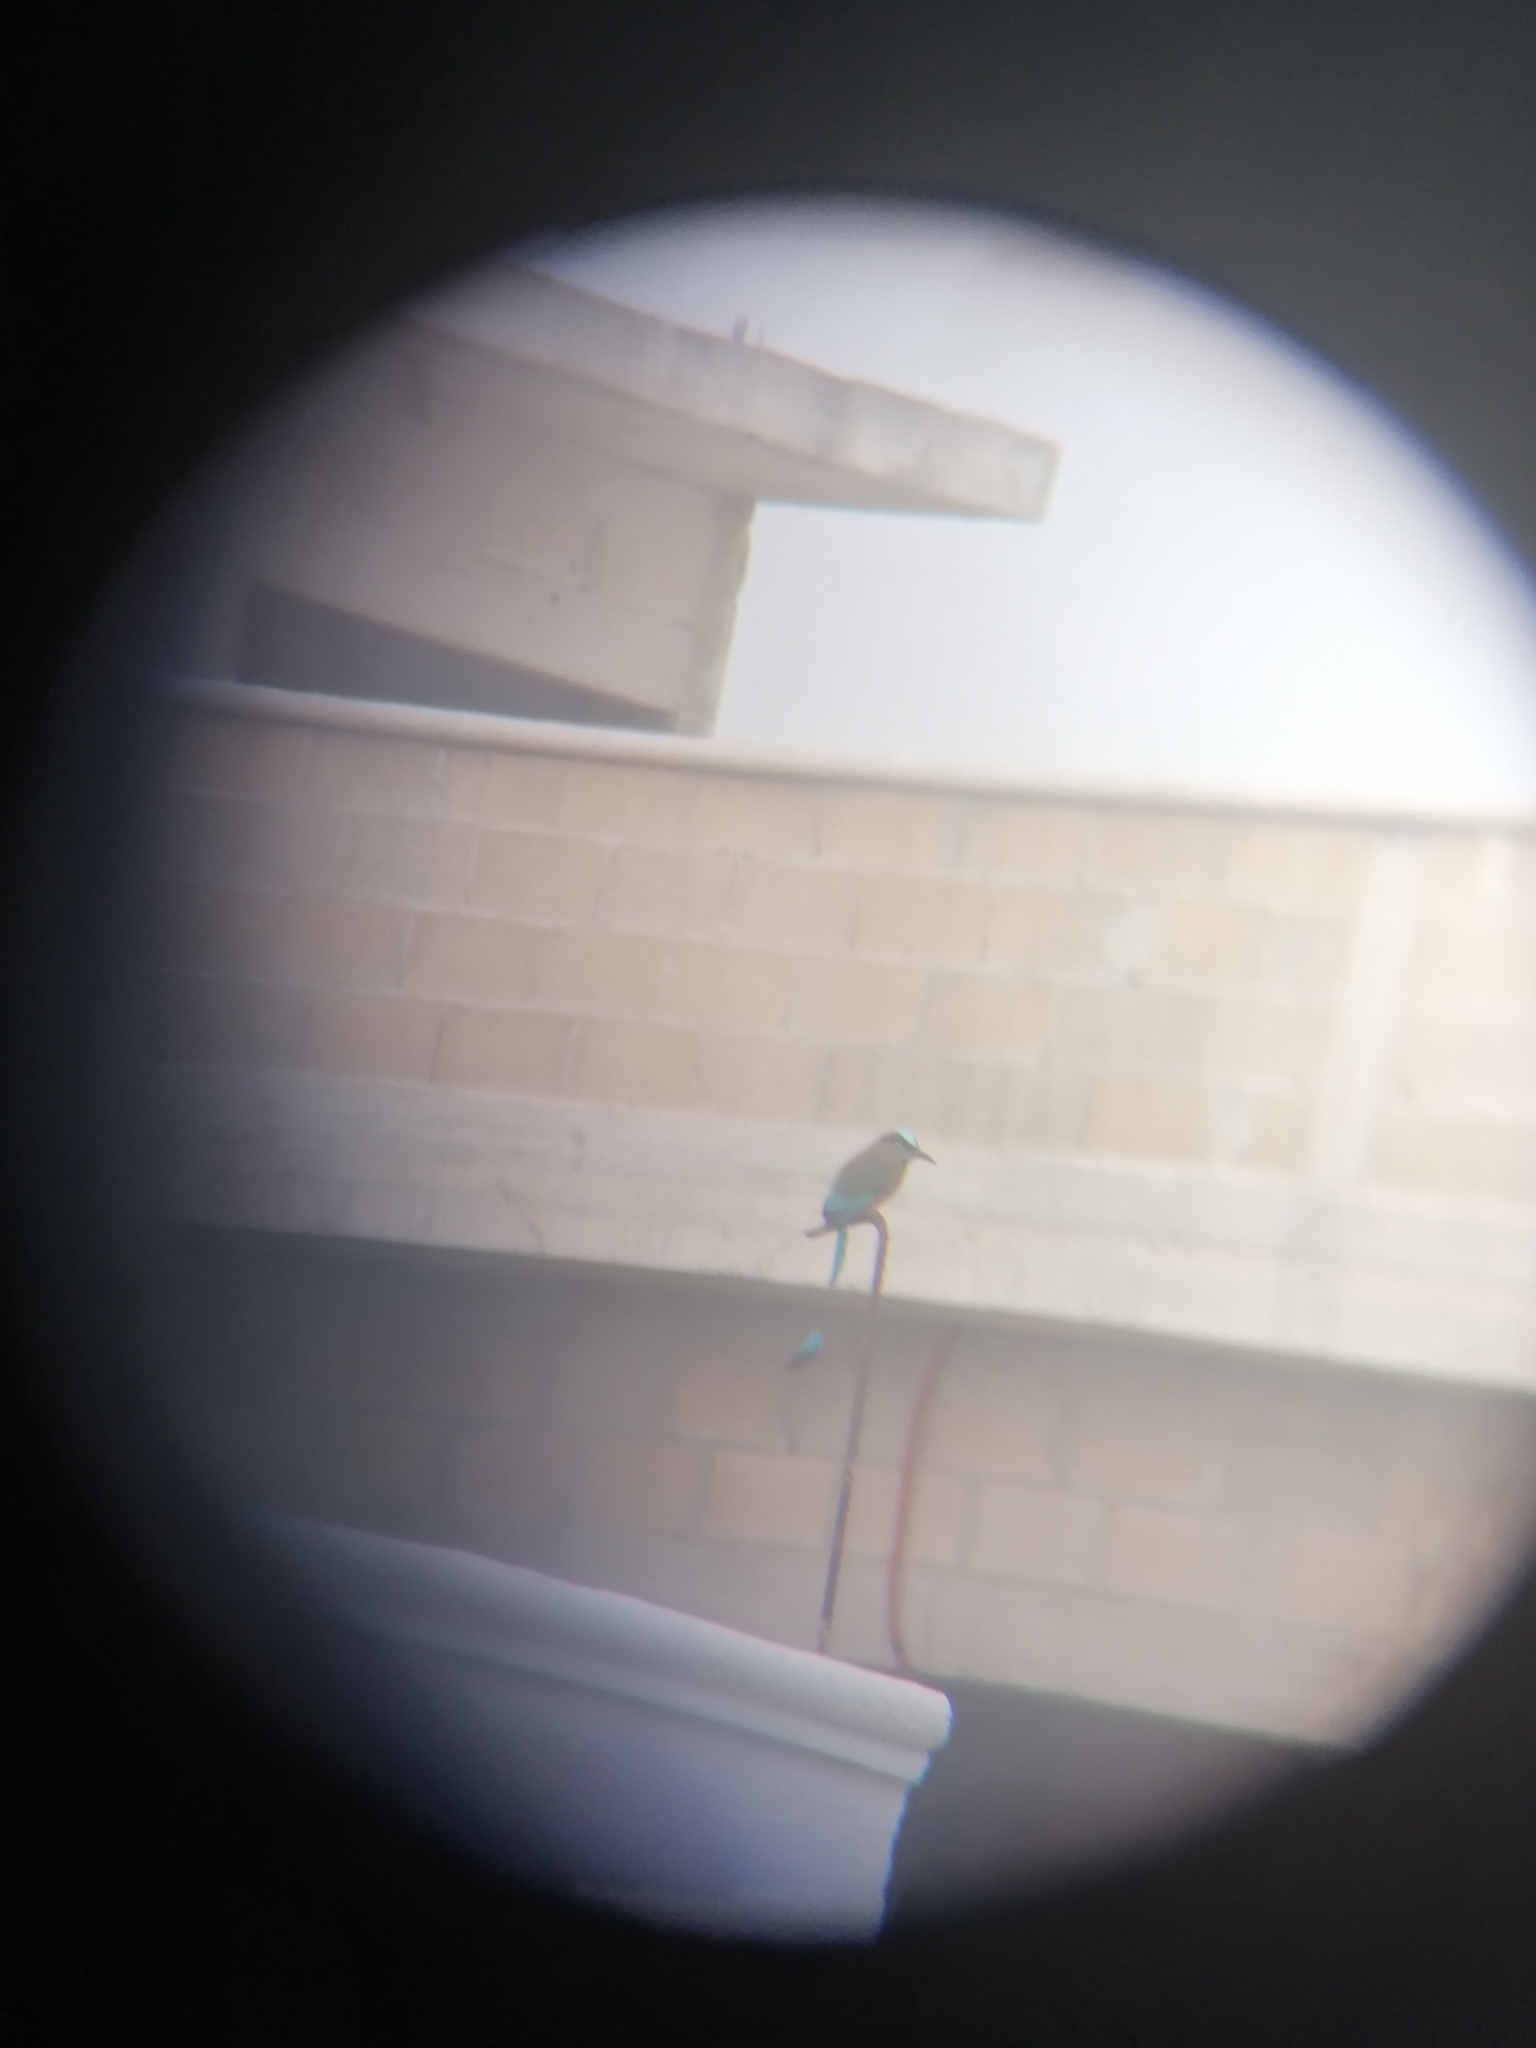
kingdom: Animalia
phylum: Chordata
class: Aves
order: Coraciiformes
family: Momotidae
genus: Eumomota
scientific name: Eumomota superciliosa
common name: Turquoise-browed motmot
